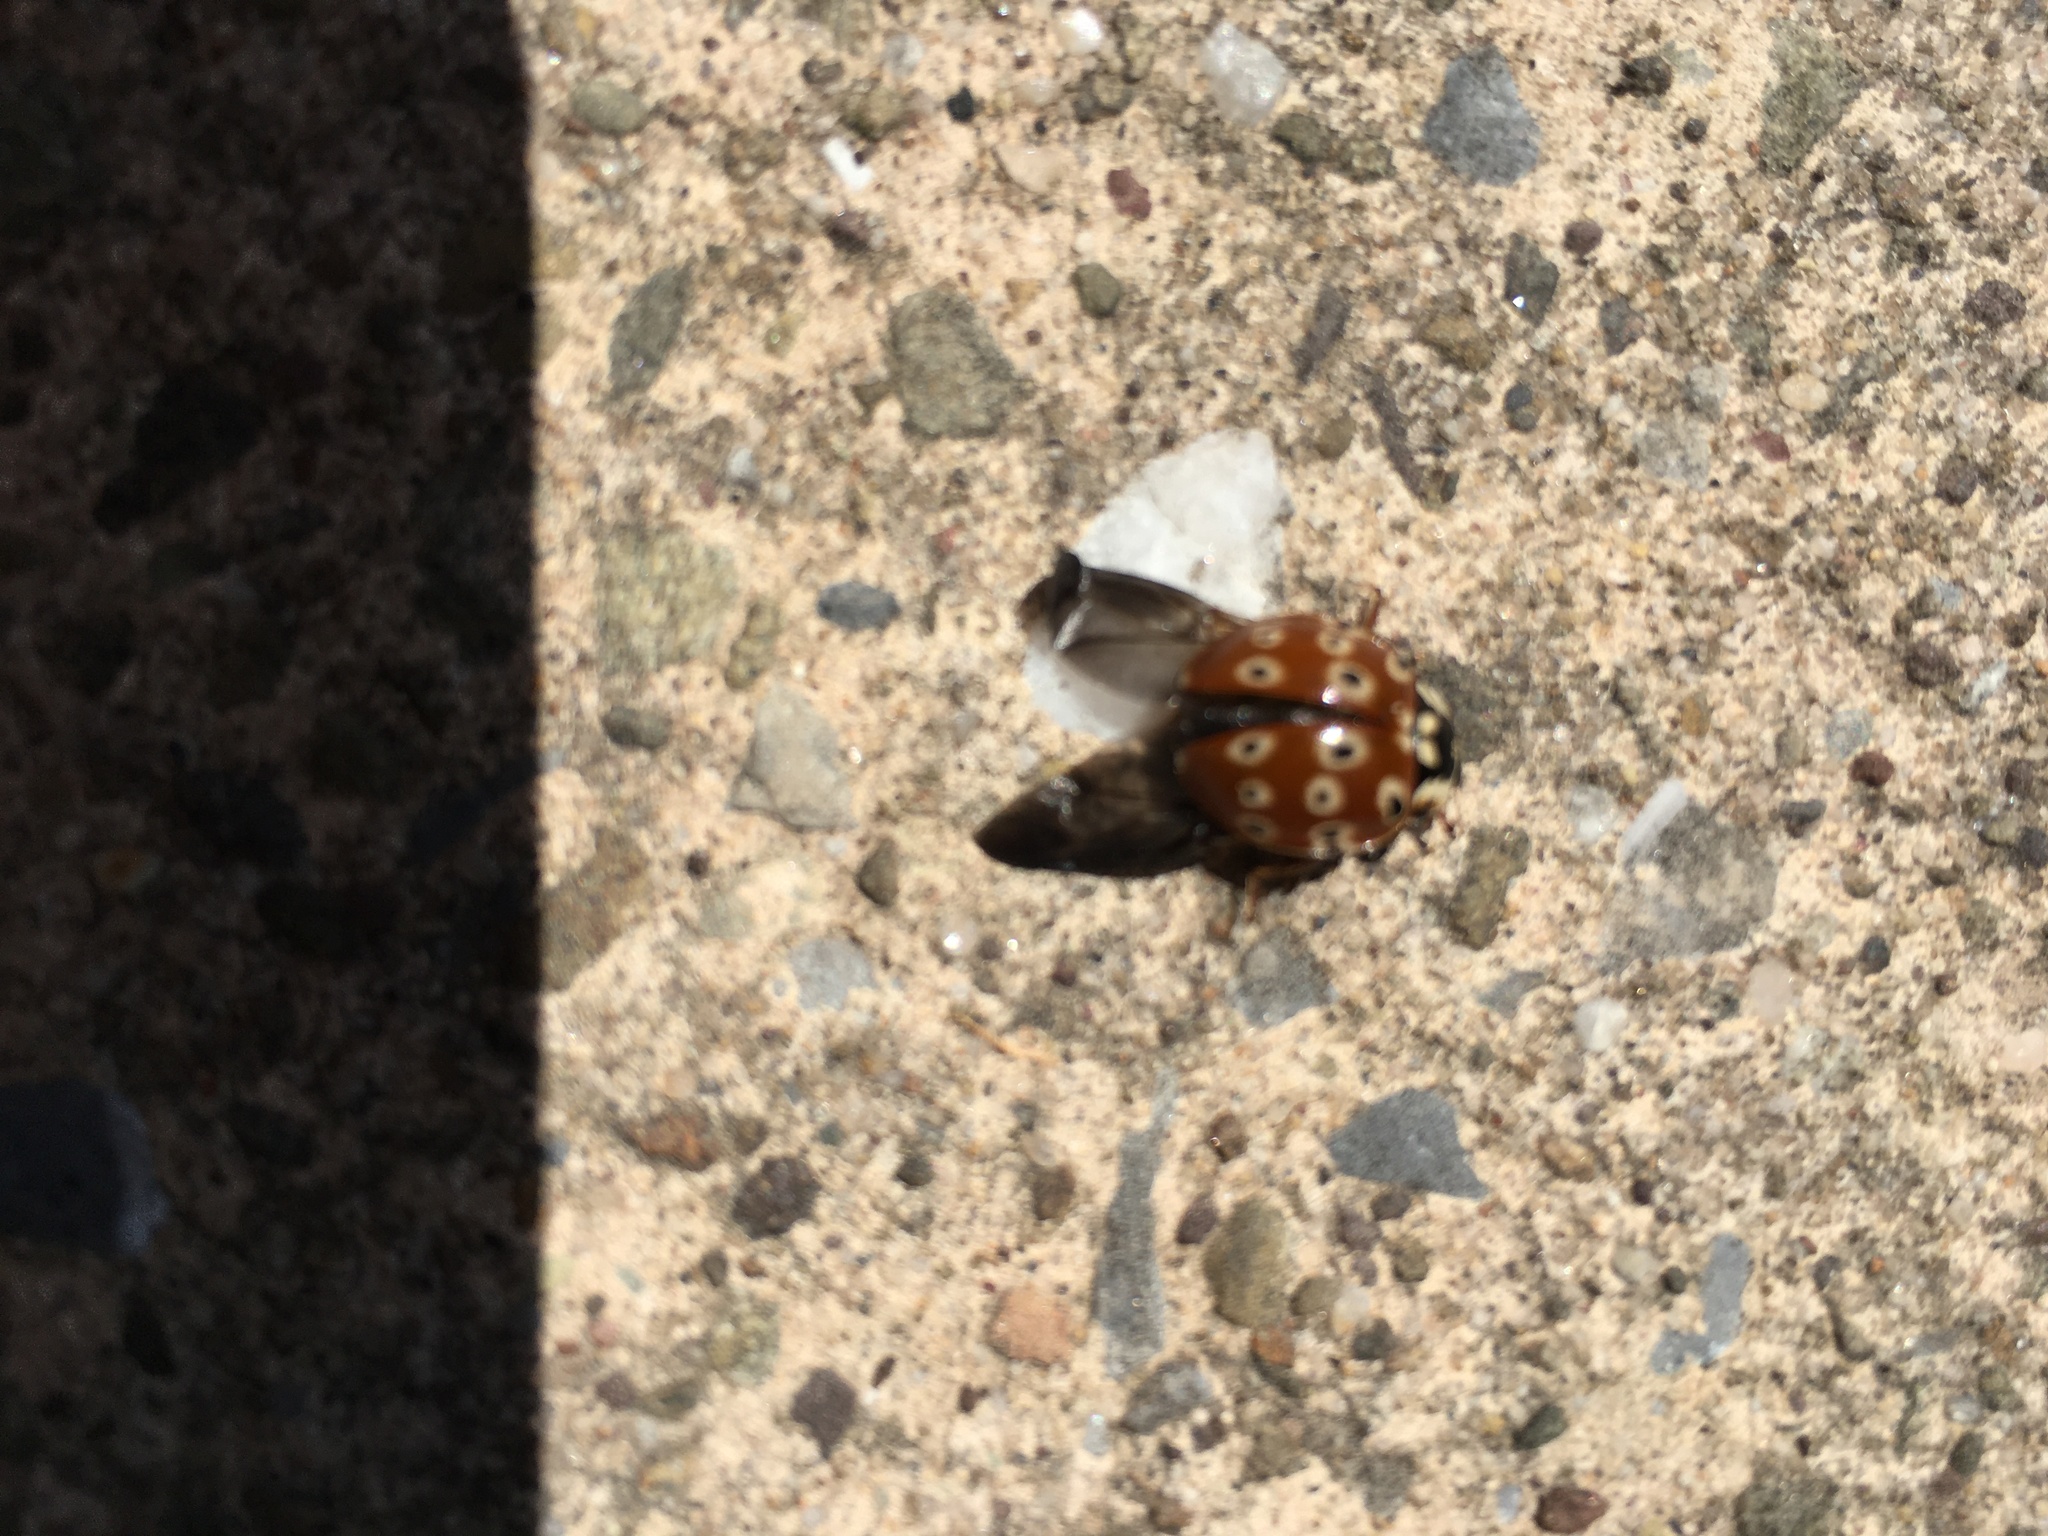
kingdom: Animalia
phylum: Arthropoda
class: Insecta
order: Coleoptera
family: Coccinellidae
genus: Anatis
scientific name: Anatis mali
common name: Eye-spotted lady beetle
